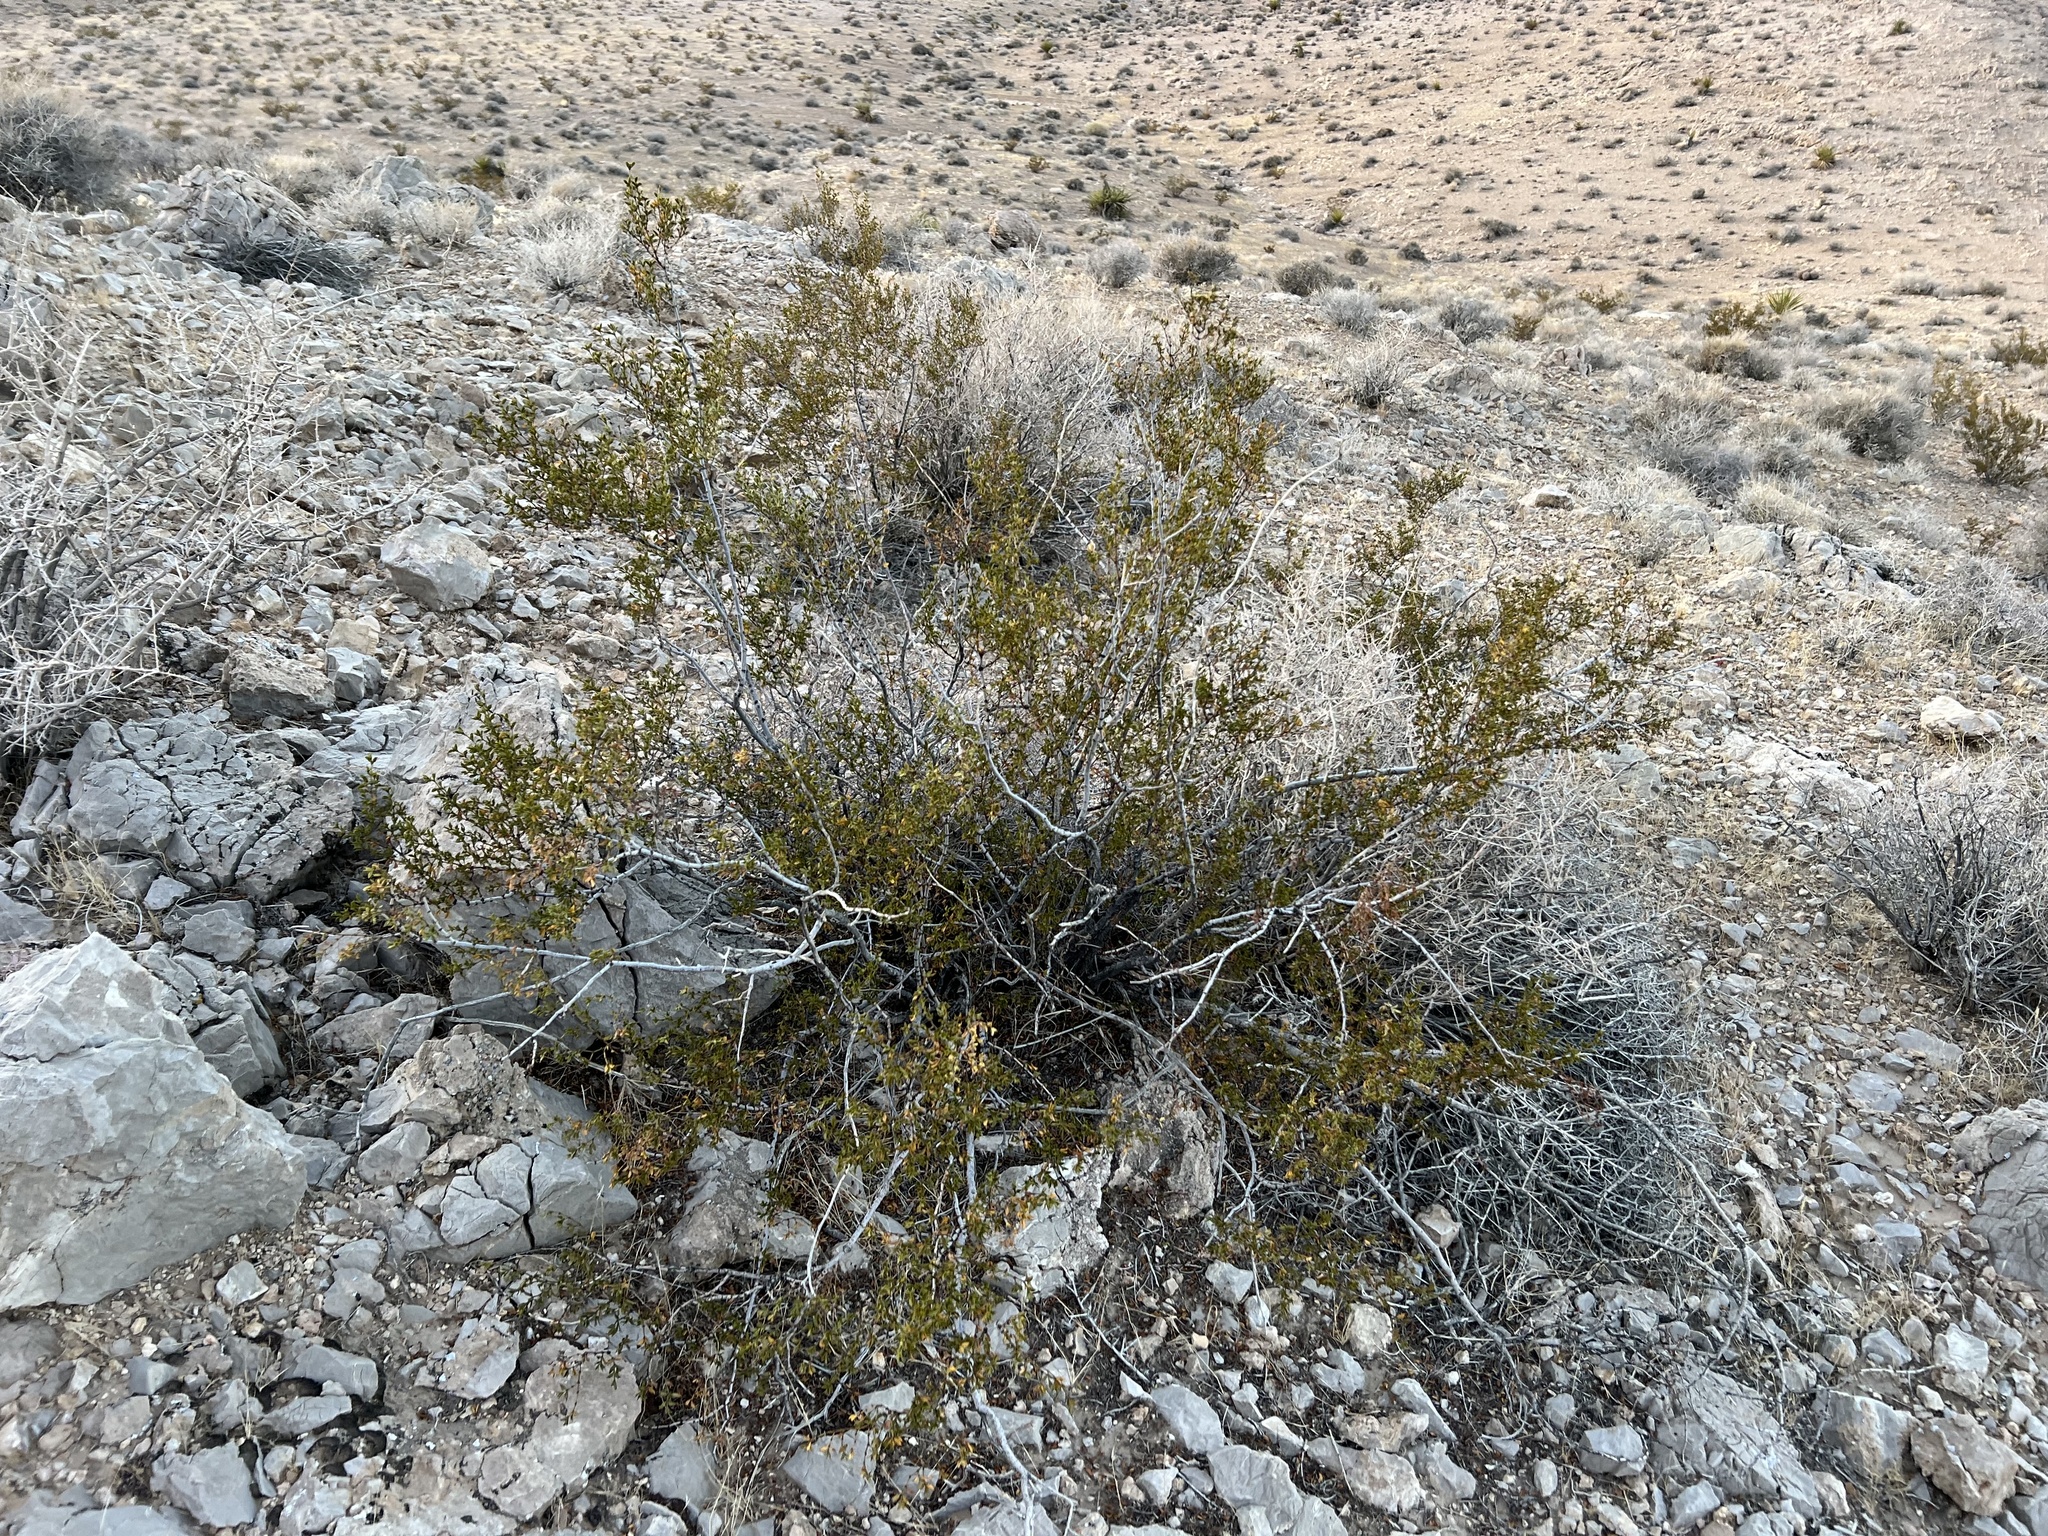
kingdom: Plantae
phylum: Tracheophyta
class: Magnoliopsida
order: Zygophyllales
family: Zygophyllaceae
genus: Larrea
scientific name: Larrea tridentata
